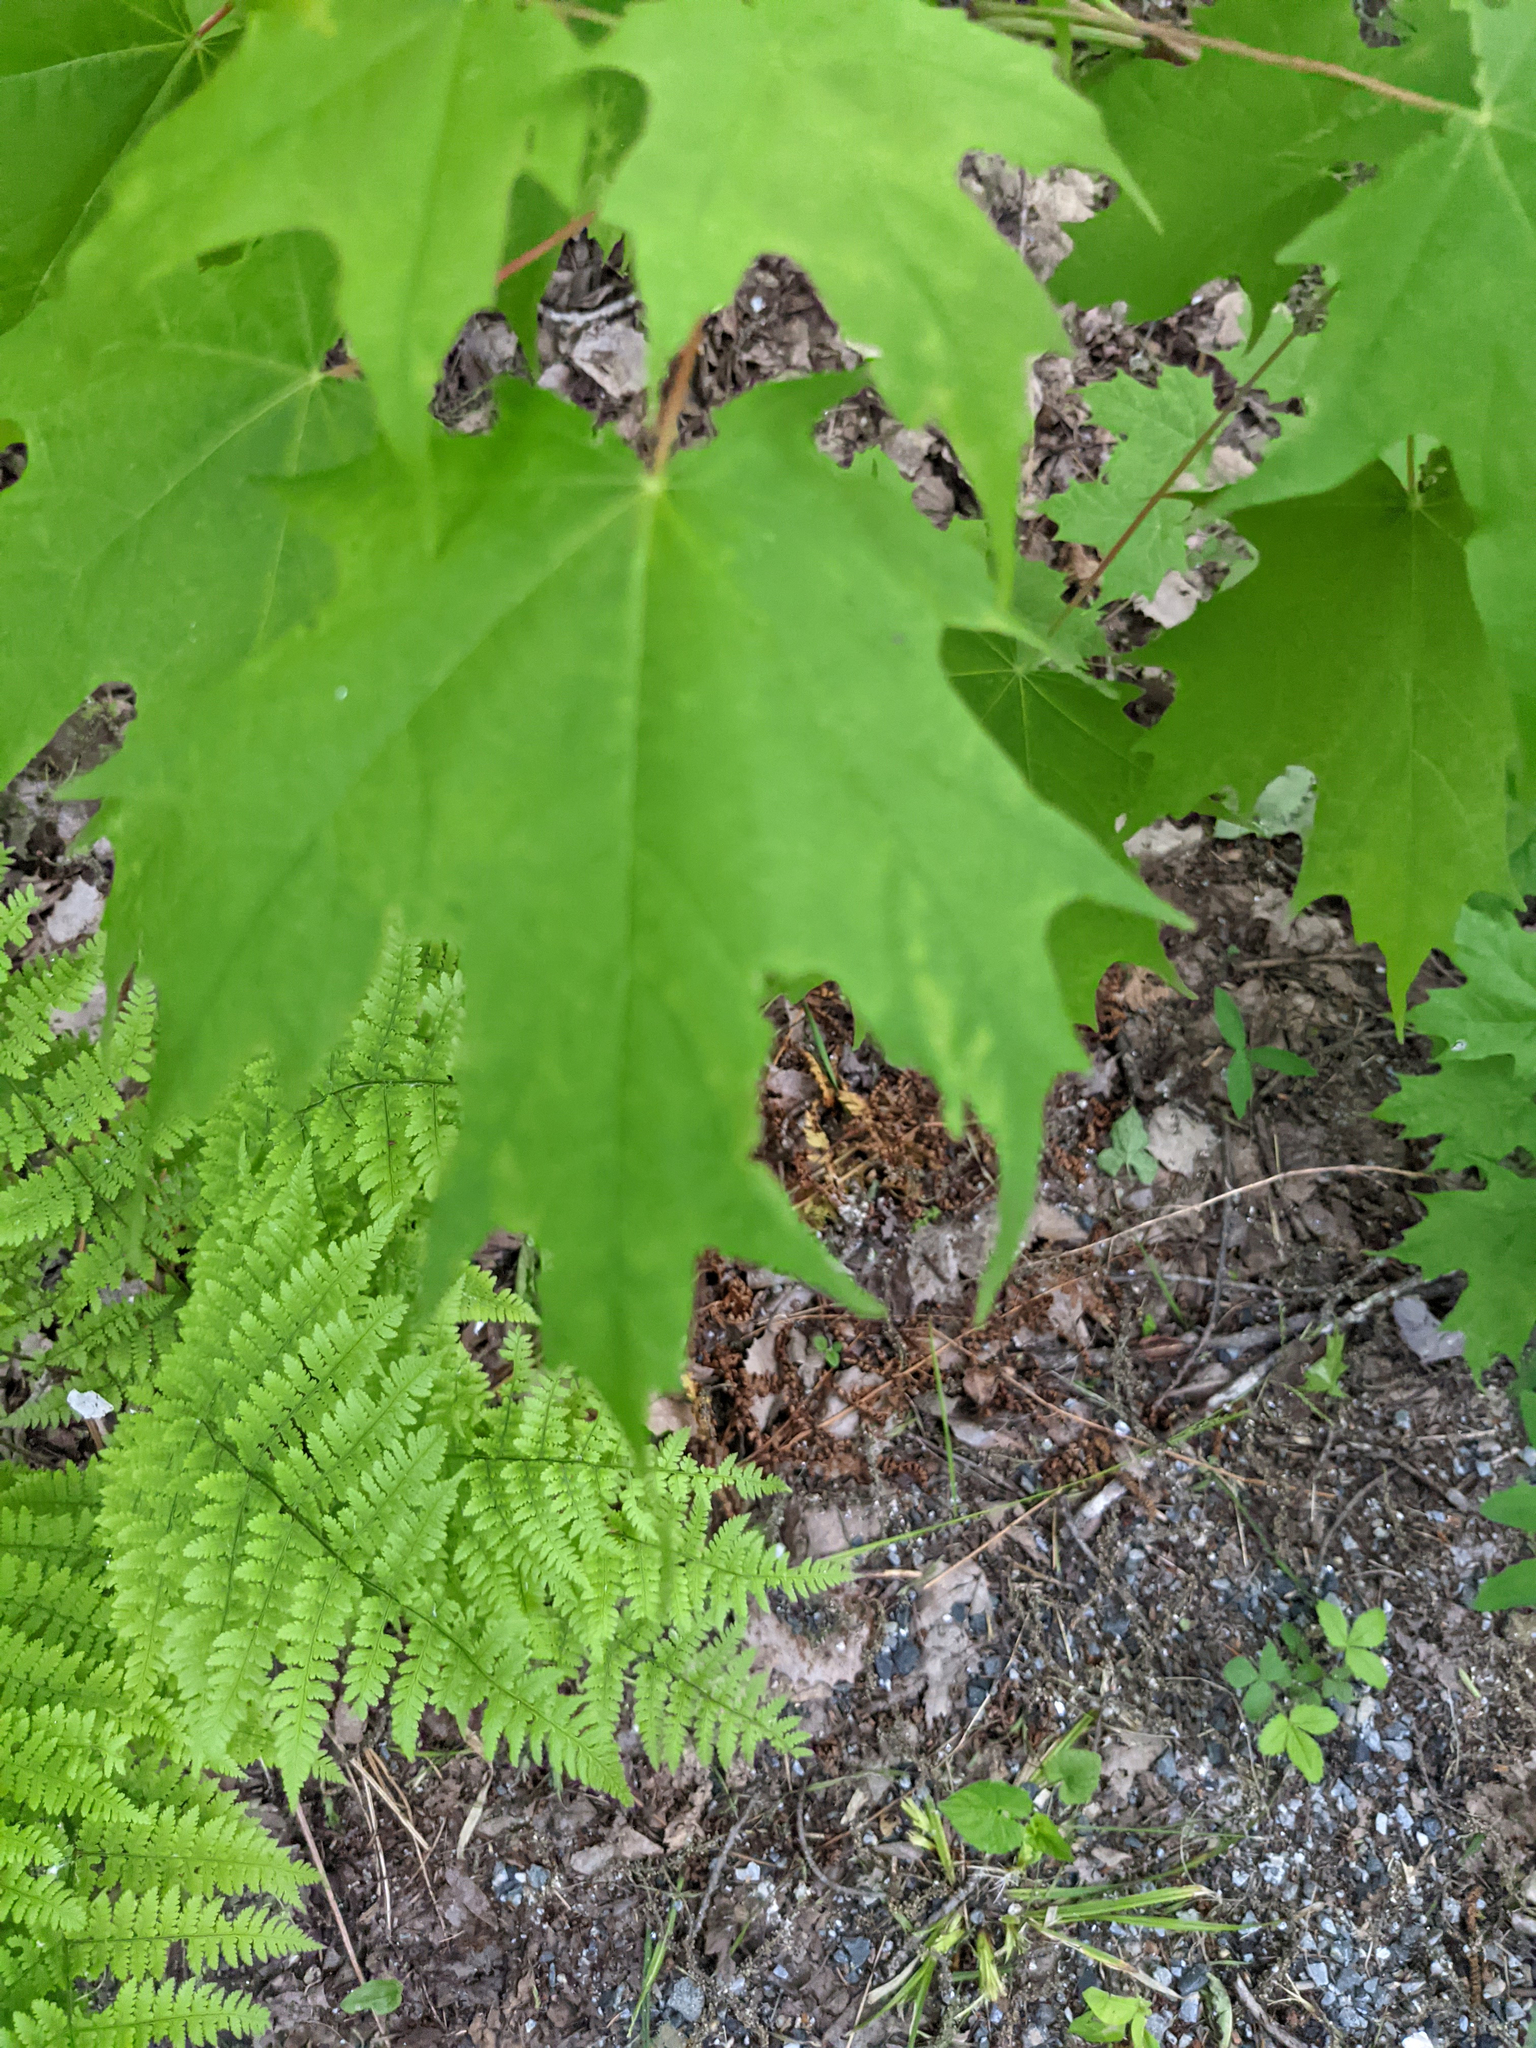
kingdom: Plantae
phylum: Tracheophyta
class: Magnoliopsida
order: Sapindales
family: Sapindaceae
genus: Acer
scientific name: Acer saccharum
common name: Sugar maple
